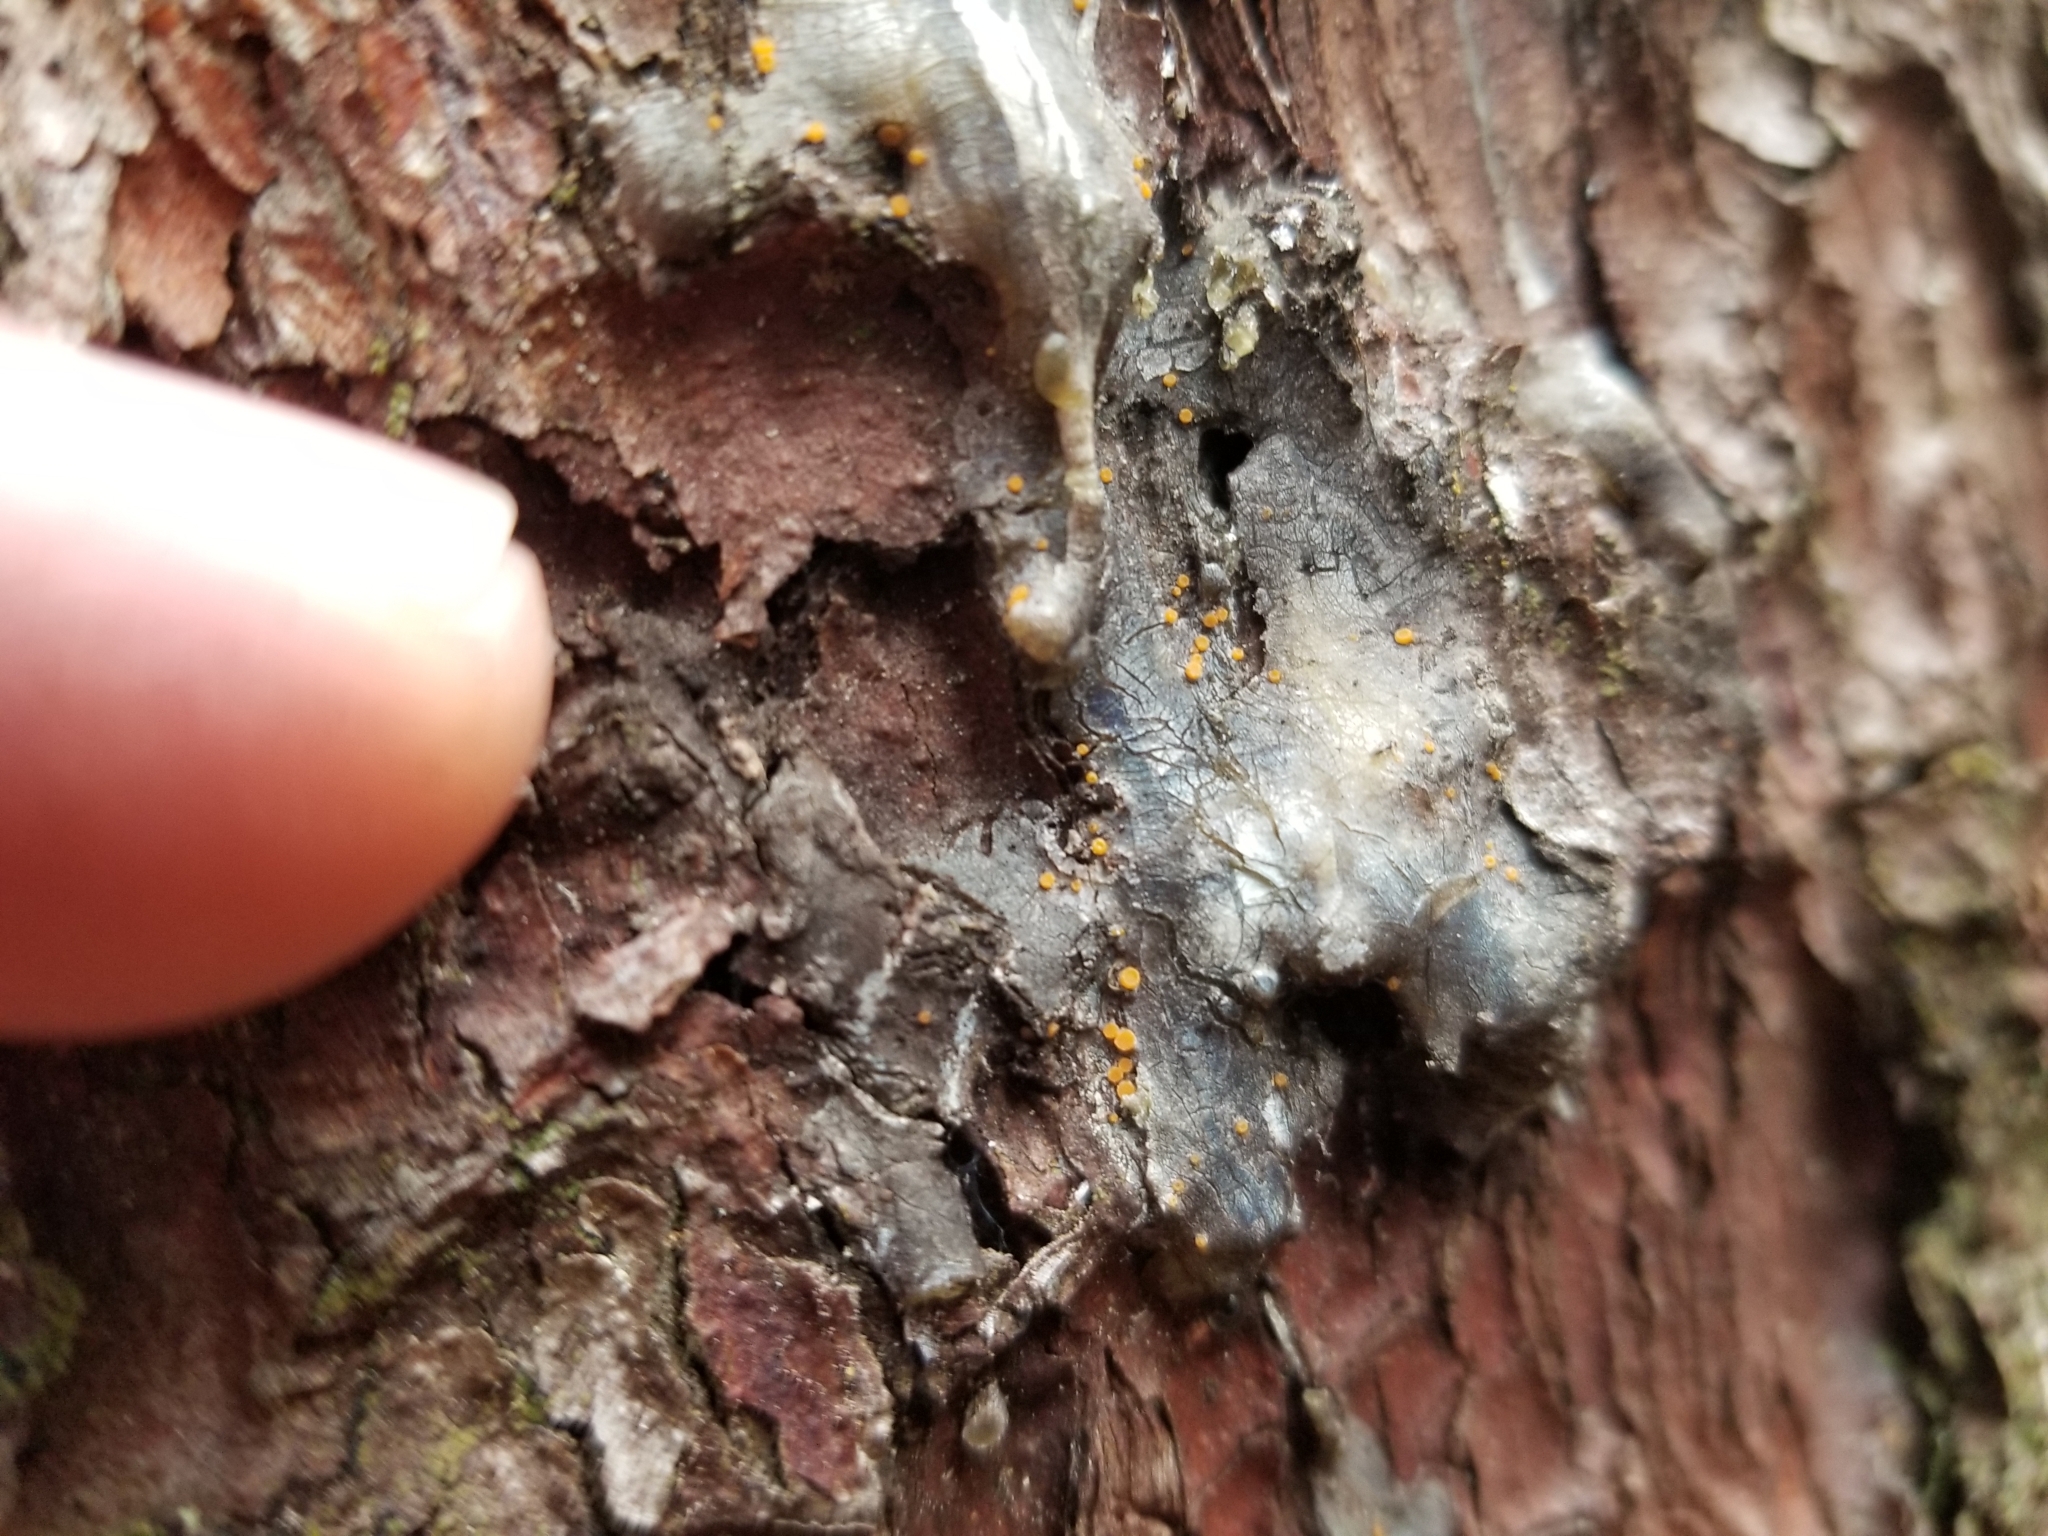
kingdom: Fungi
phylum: Ascomycota
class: Sareomycetes
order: Sareales
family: Sareaceae
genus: Sarea
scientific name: Sarea resinae
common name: Sarea lichen
